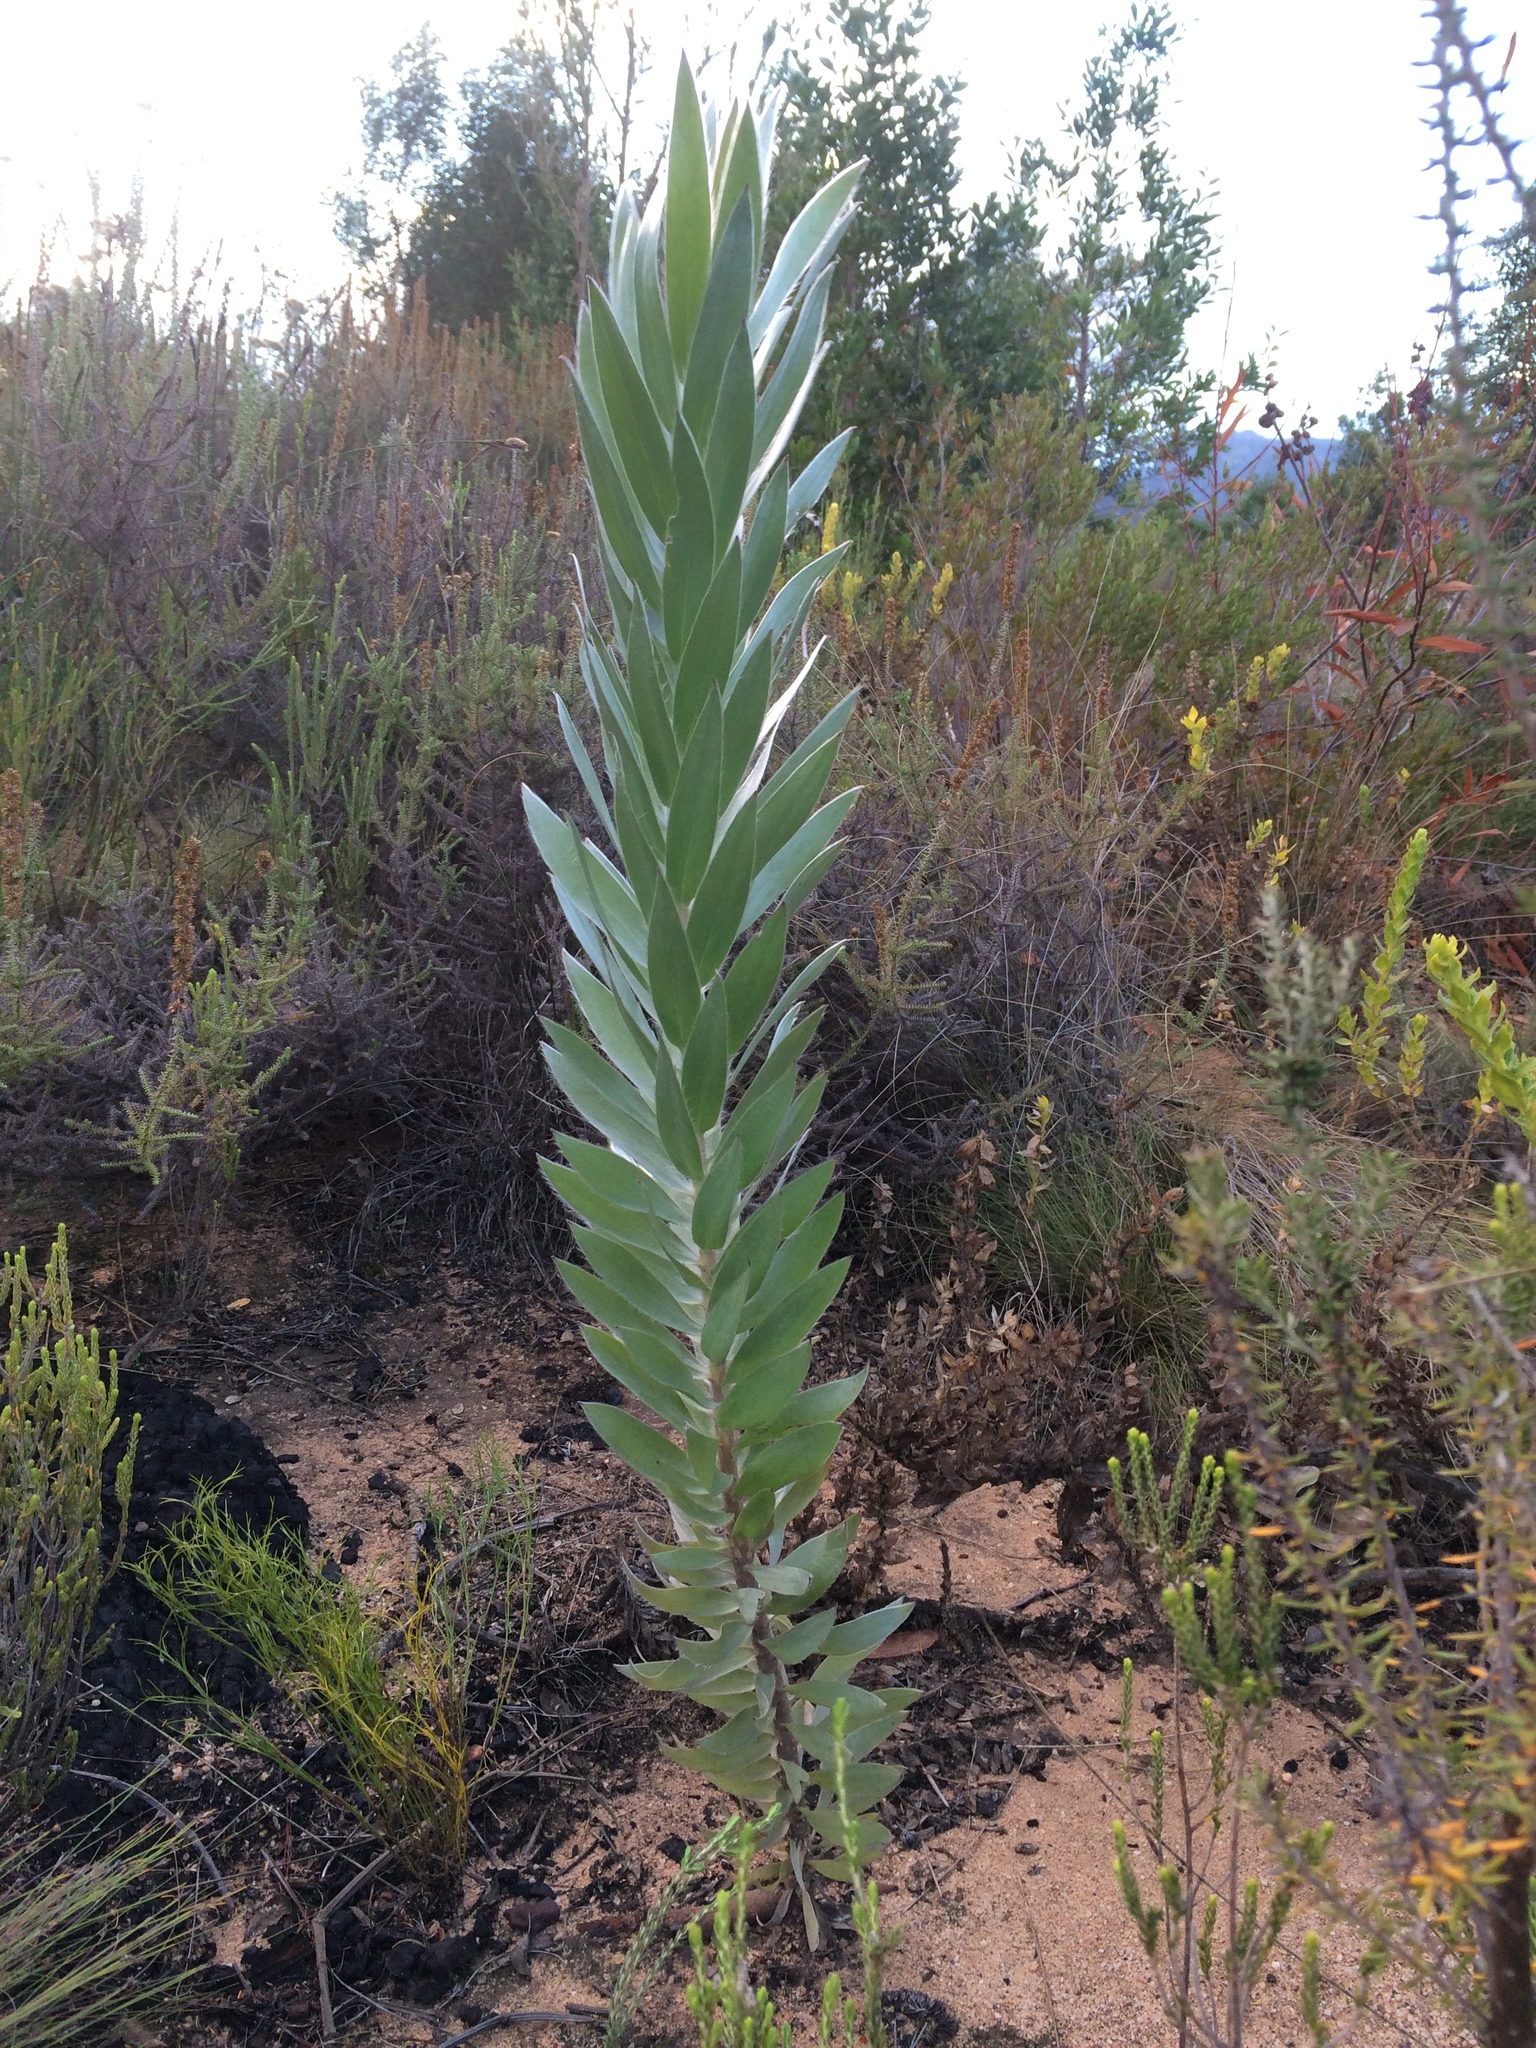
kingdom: Plantae
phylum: Tracheophyta
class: Magnoliopsida
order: Proteales
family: Proteaceae
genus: Leucadendron
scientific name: Leucadendron argenteum
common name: Cape silver tree
